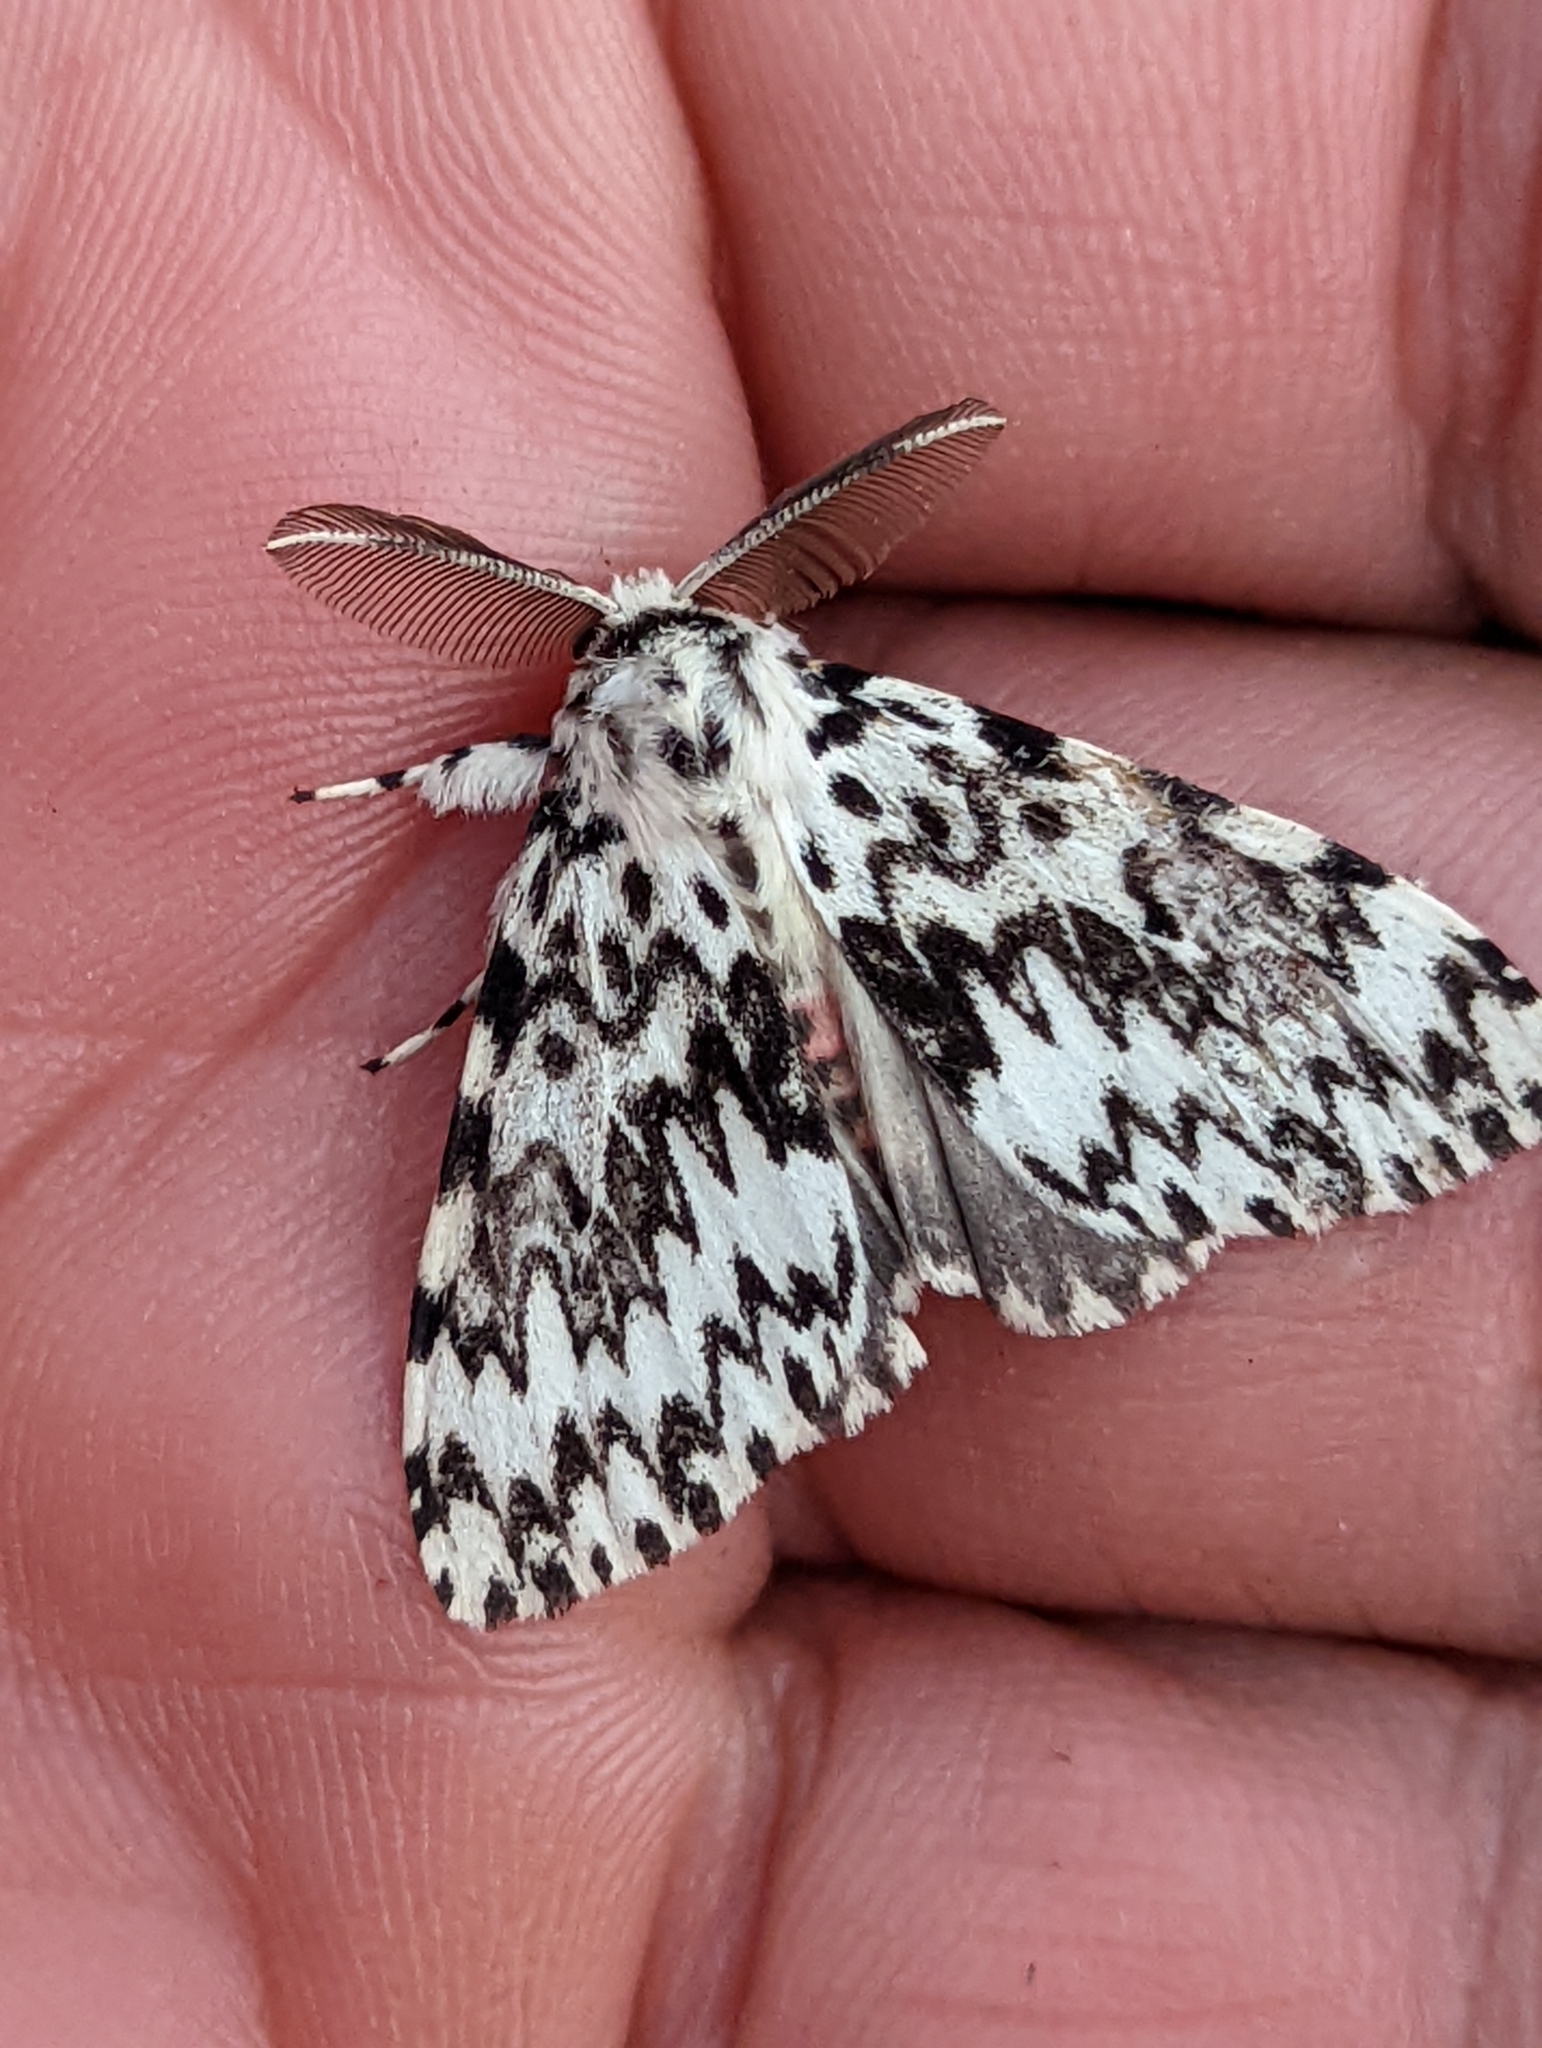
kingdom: Animalia
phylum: Arthropoda
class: Insecta
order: Lepidoptera
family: Erebidae
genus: Lymantria
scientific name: Lymantria monacha
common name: Black arches
